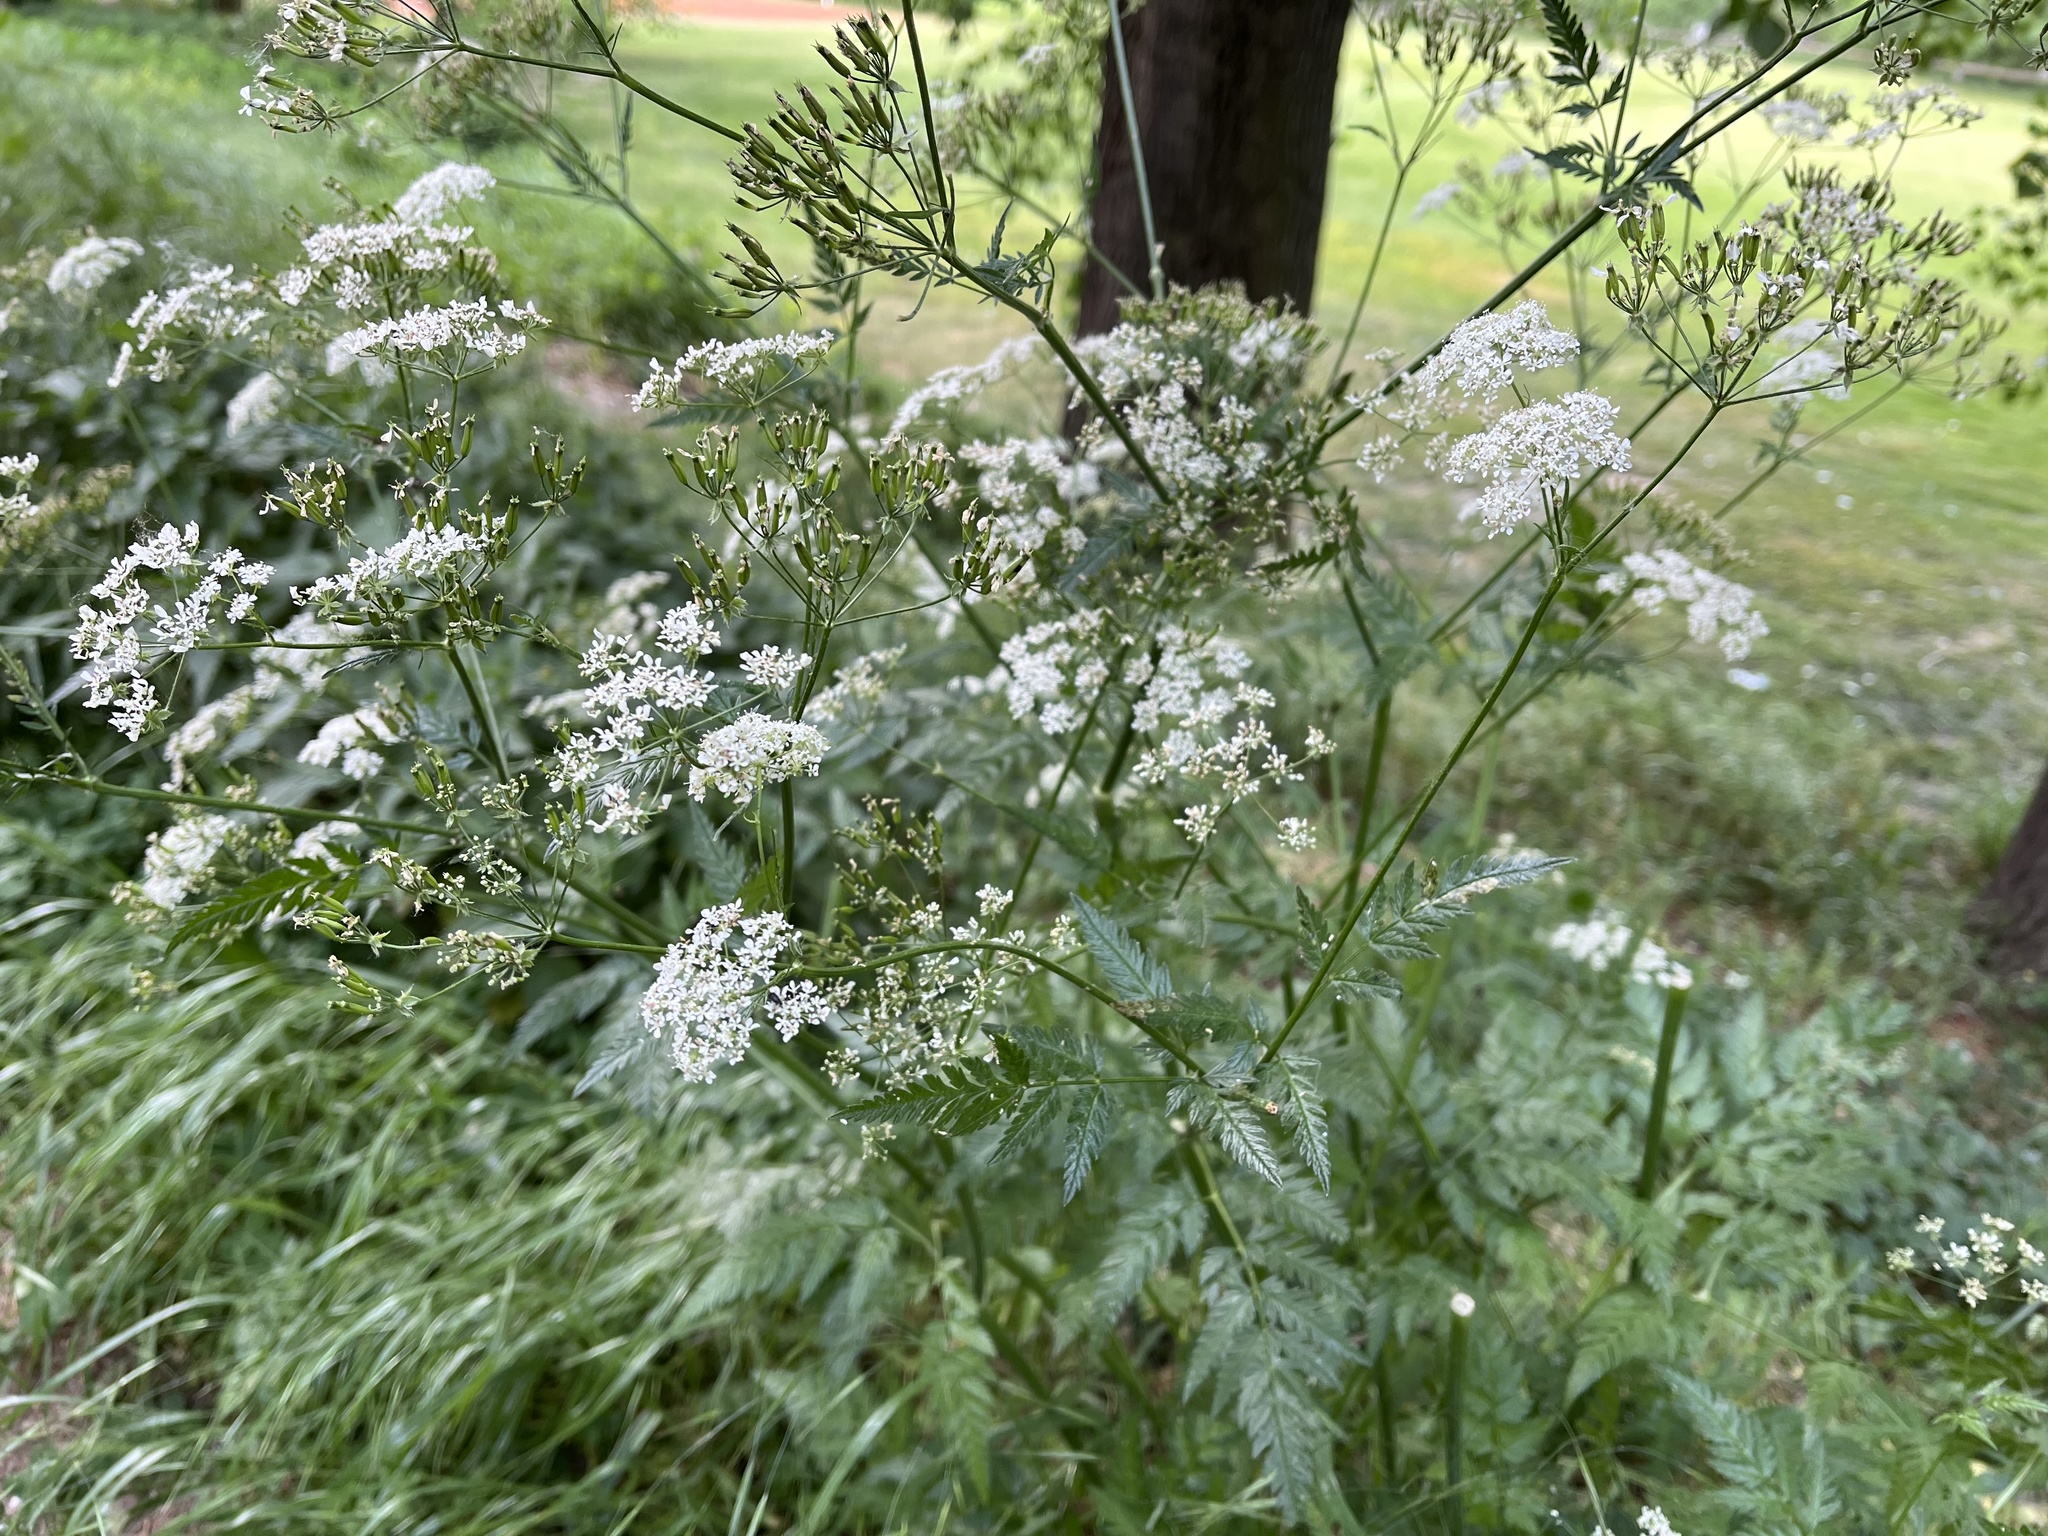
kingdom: Plantae
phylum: Tracheophyta
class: Magnoliopsida
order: Apiales
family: Apiaceae
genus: Anthriscus
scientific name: Anthriscus sylvestris
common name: Cow parsley
